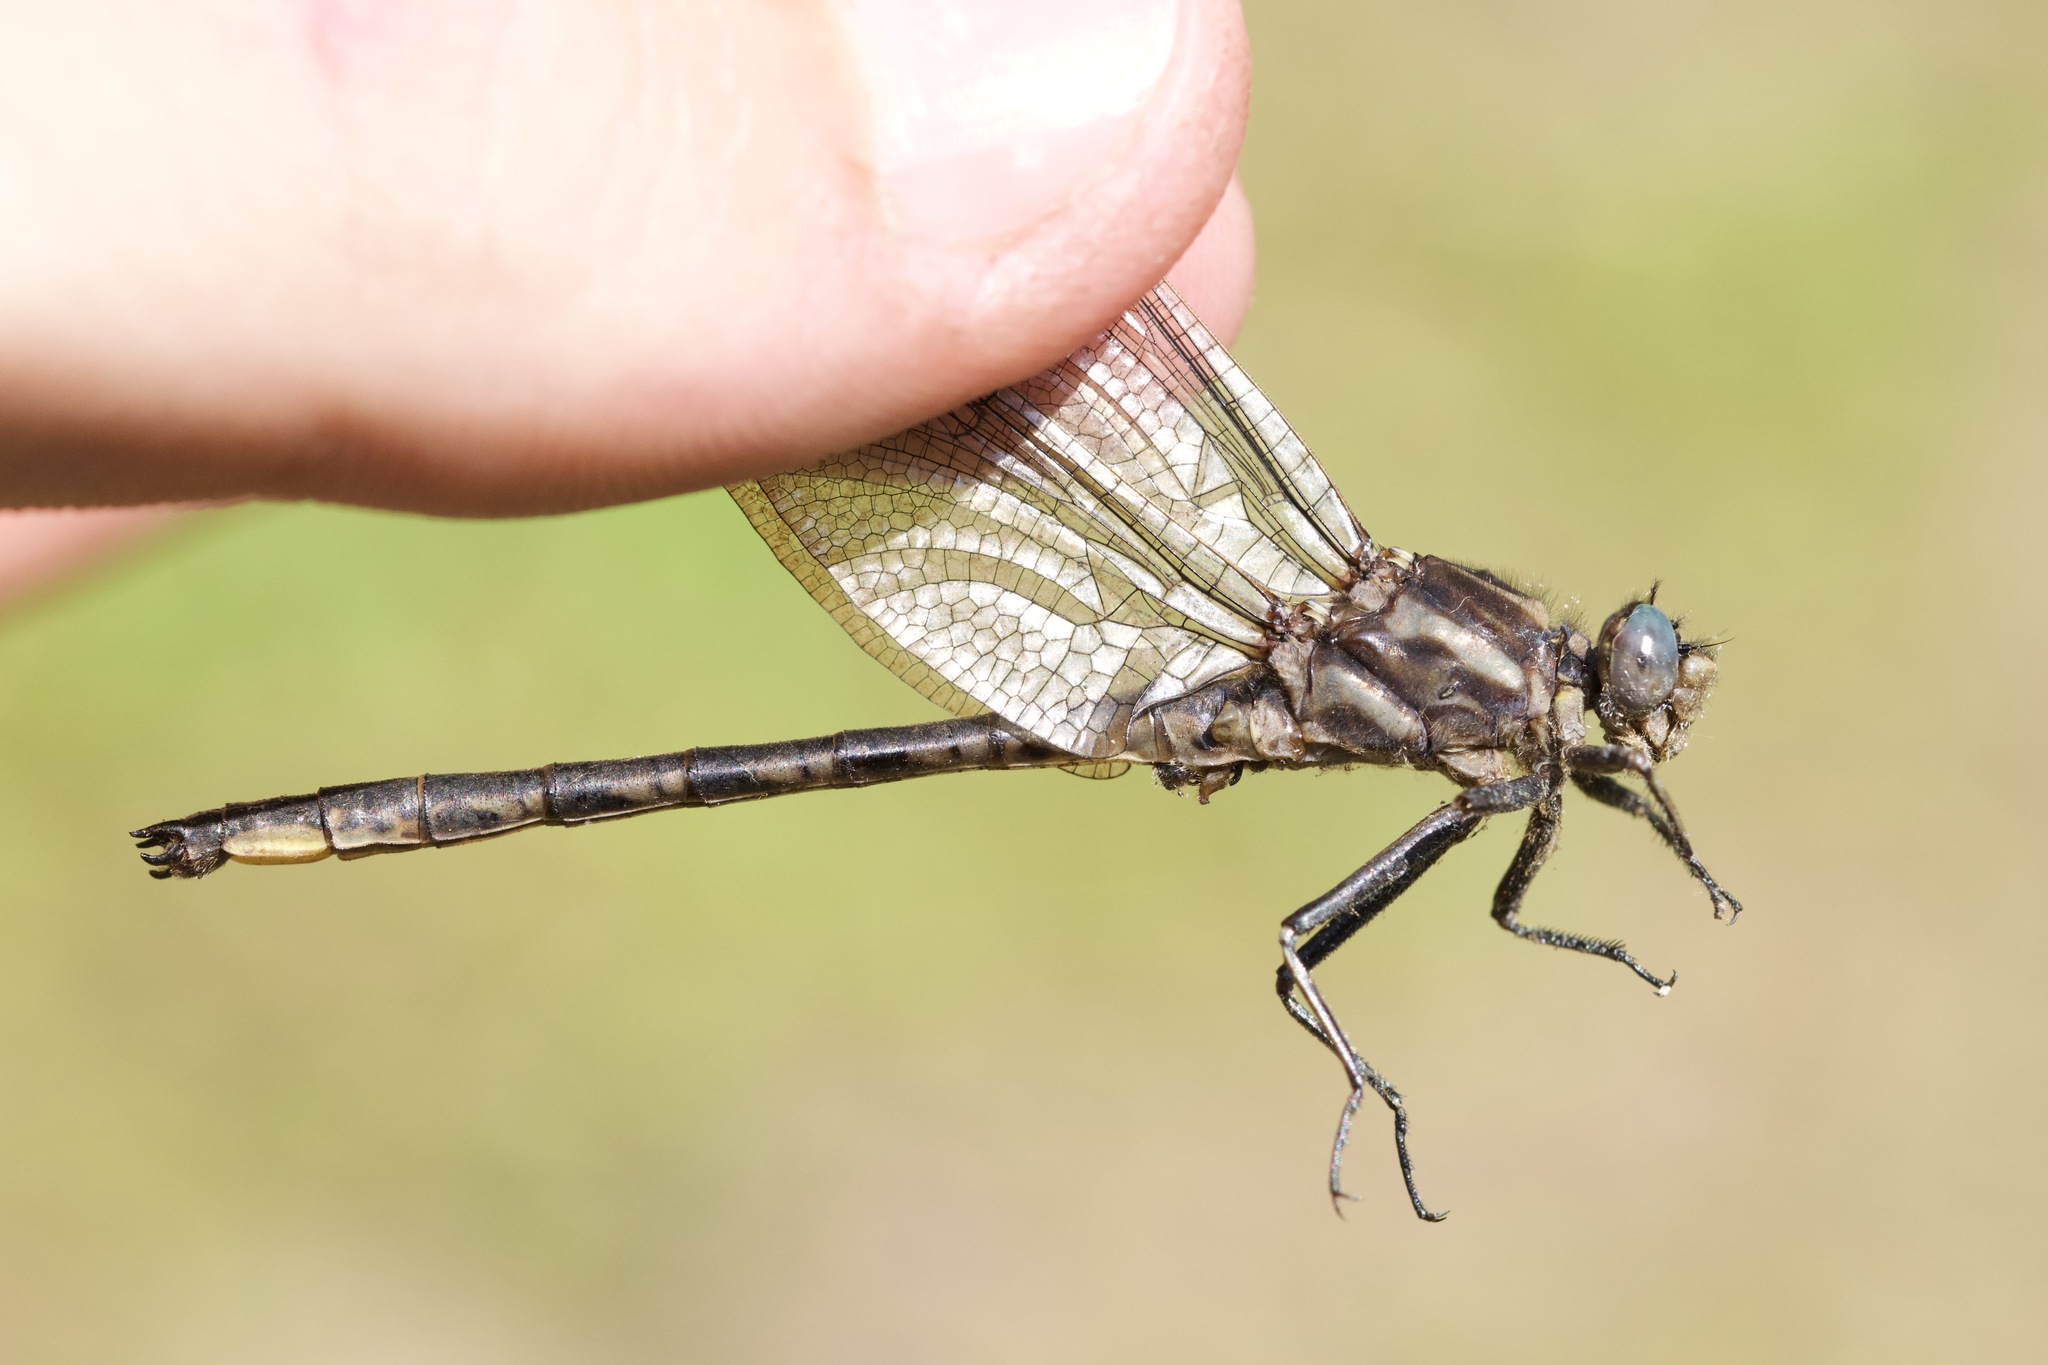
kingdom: Animalia
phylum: Arthropoda
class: Insecta
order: Odonata
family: Gomphidae
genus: Phanogomphus
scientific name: Phanogomphus spicatus
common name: Dusky clubtail
